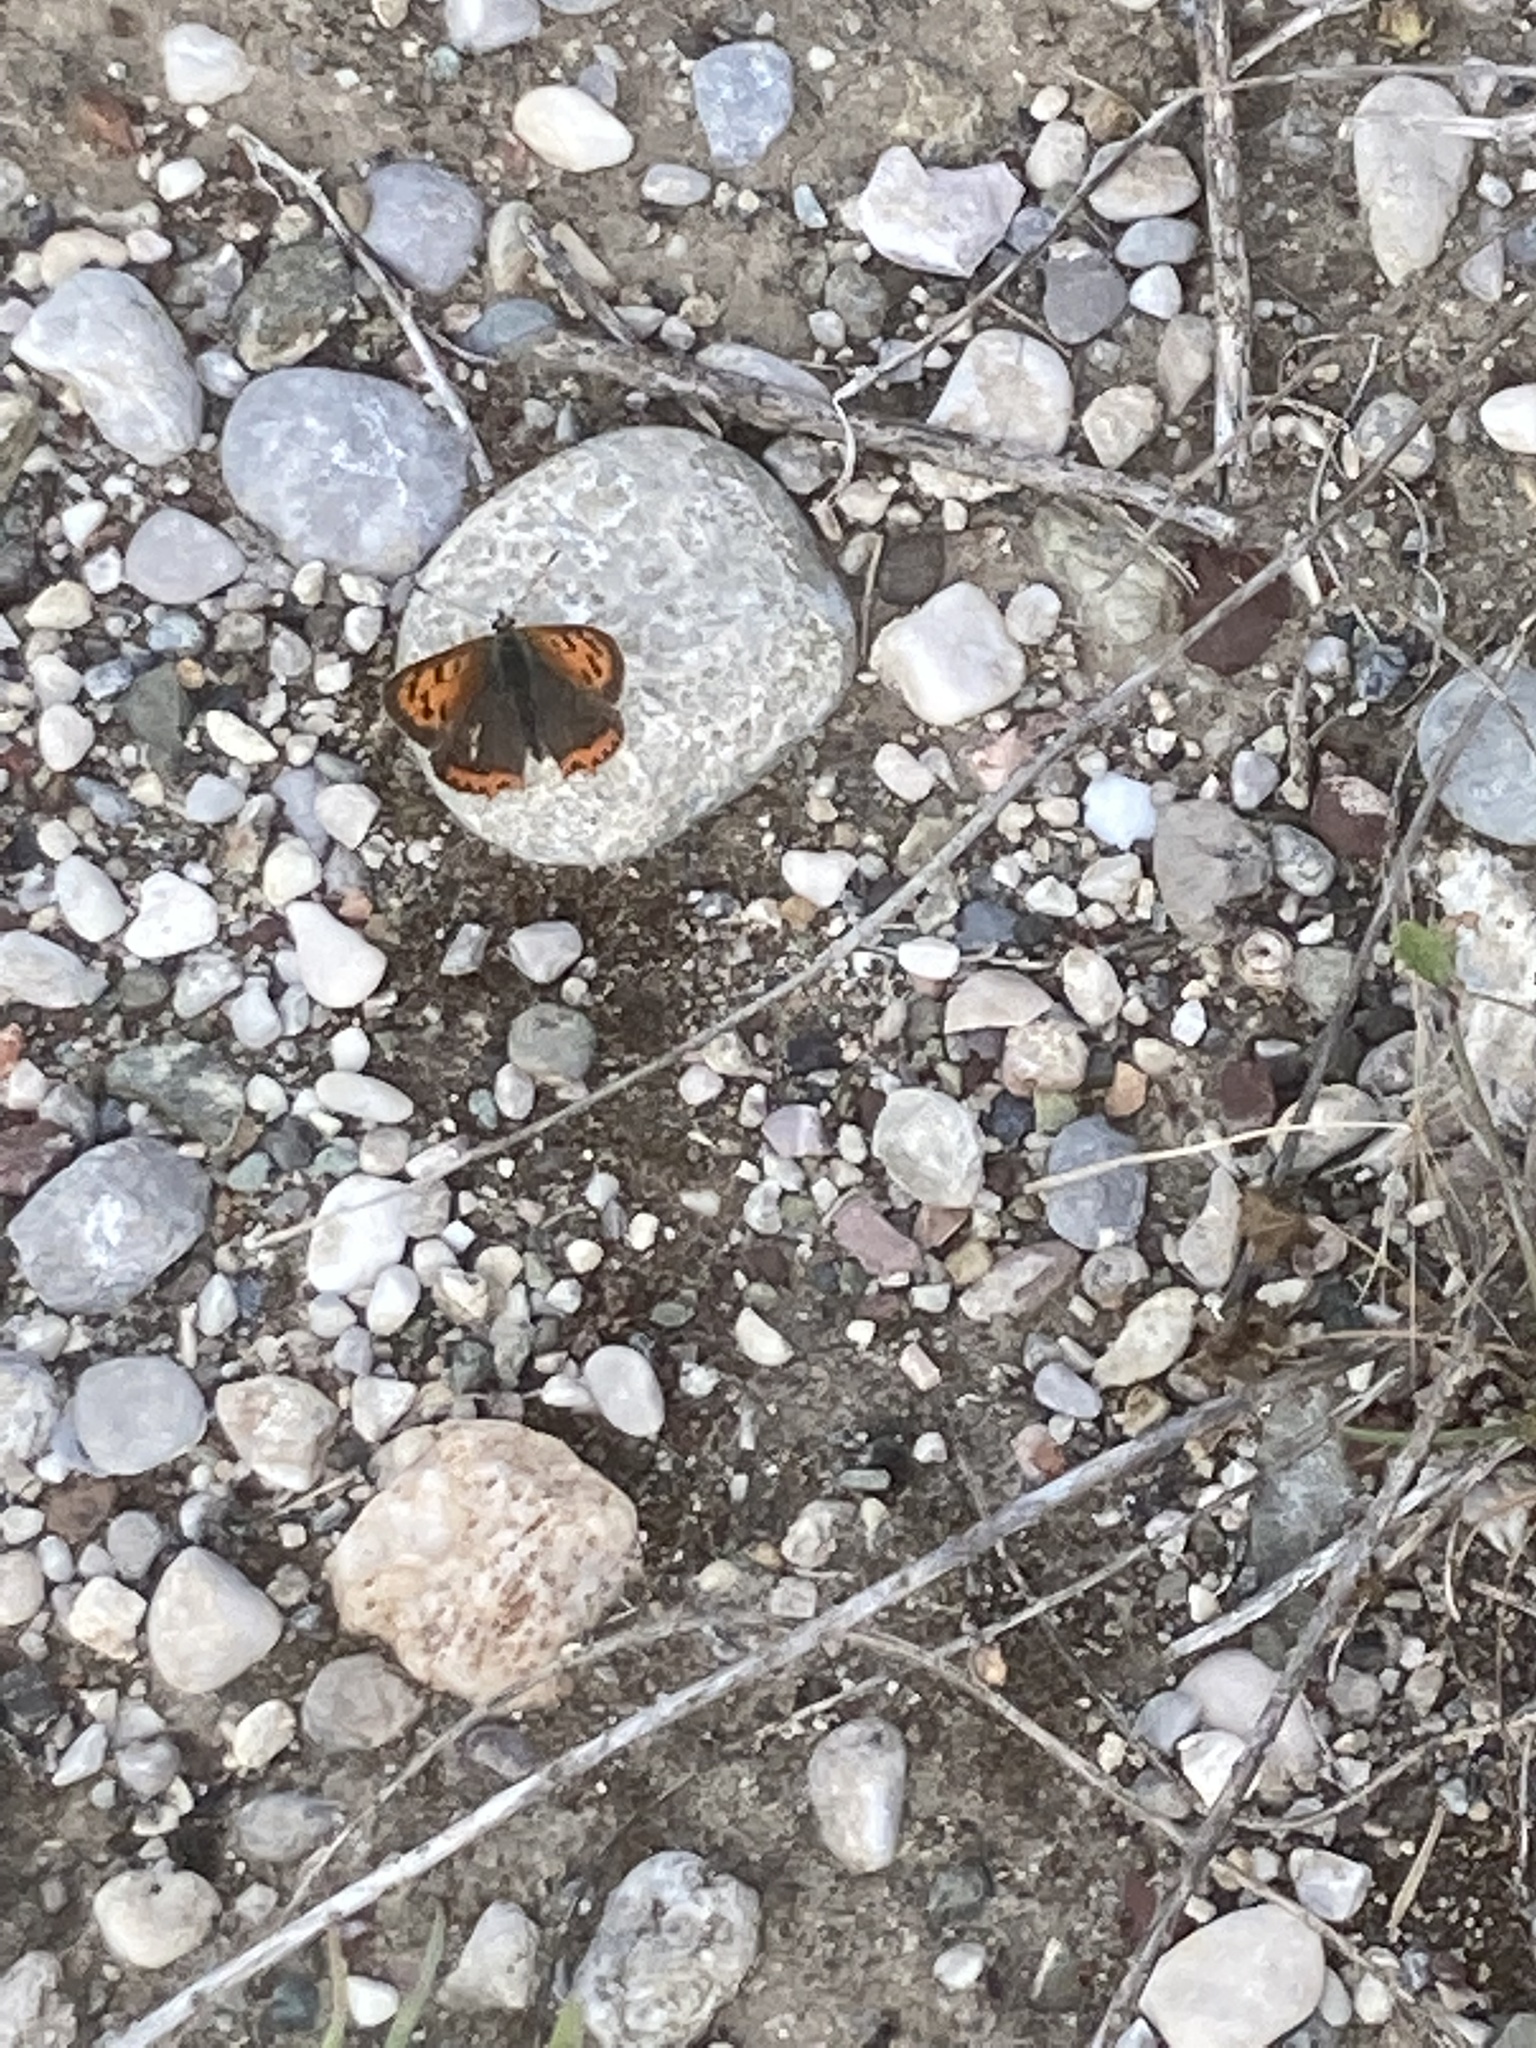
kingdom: Animalia
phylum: Arthropoda
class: Insecta
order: Lepidoptera
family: Lycaenidae
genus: Lycaena
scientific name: Lycaena phlaeas
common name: Small copper
